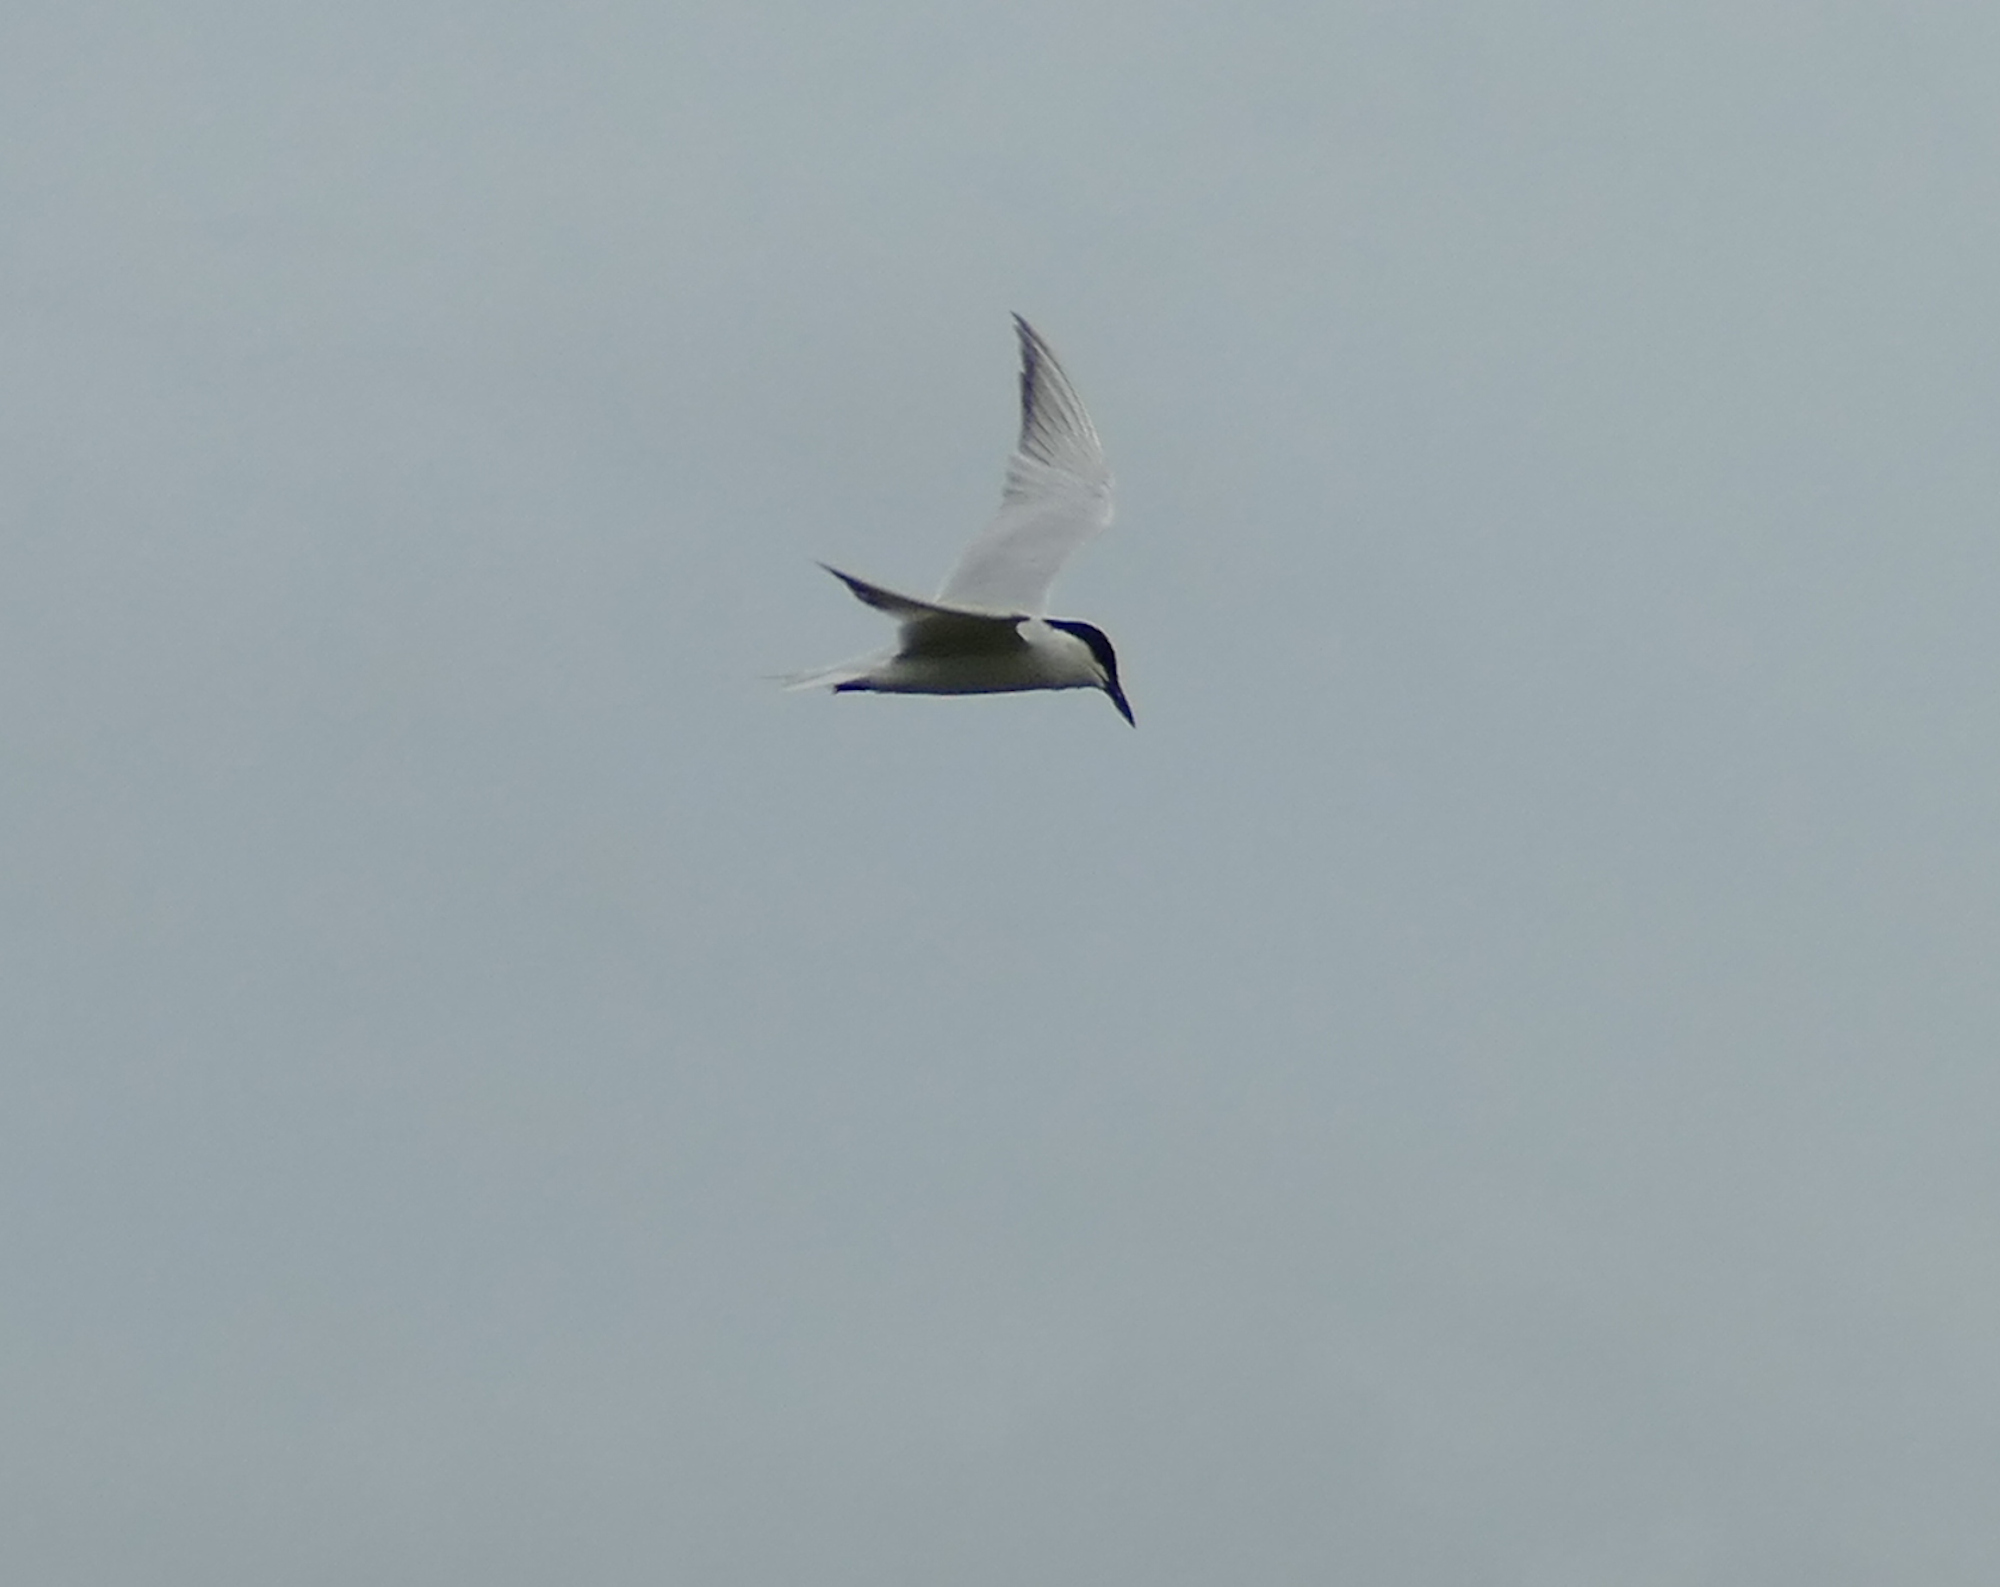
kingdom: Animalia
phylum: Chordata
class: Aves
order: Charadriiformes
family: Laridae
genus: Gelochelidon
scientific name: Gelochelidon nilotica
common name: Gull-billed tern
